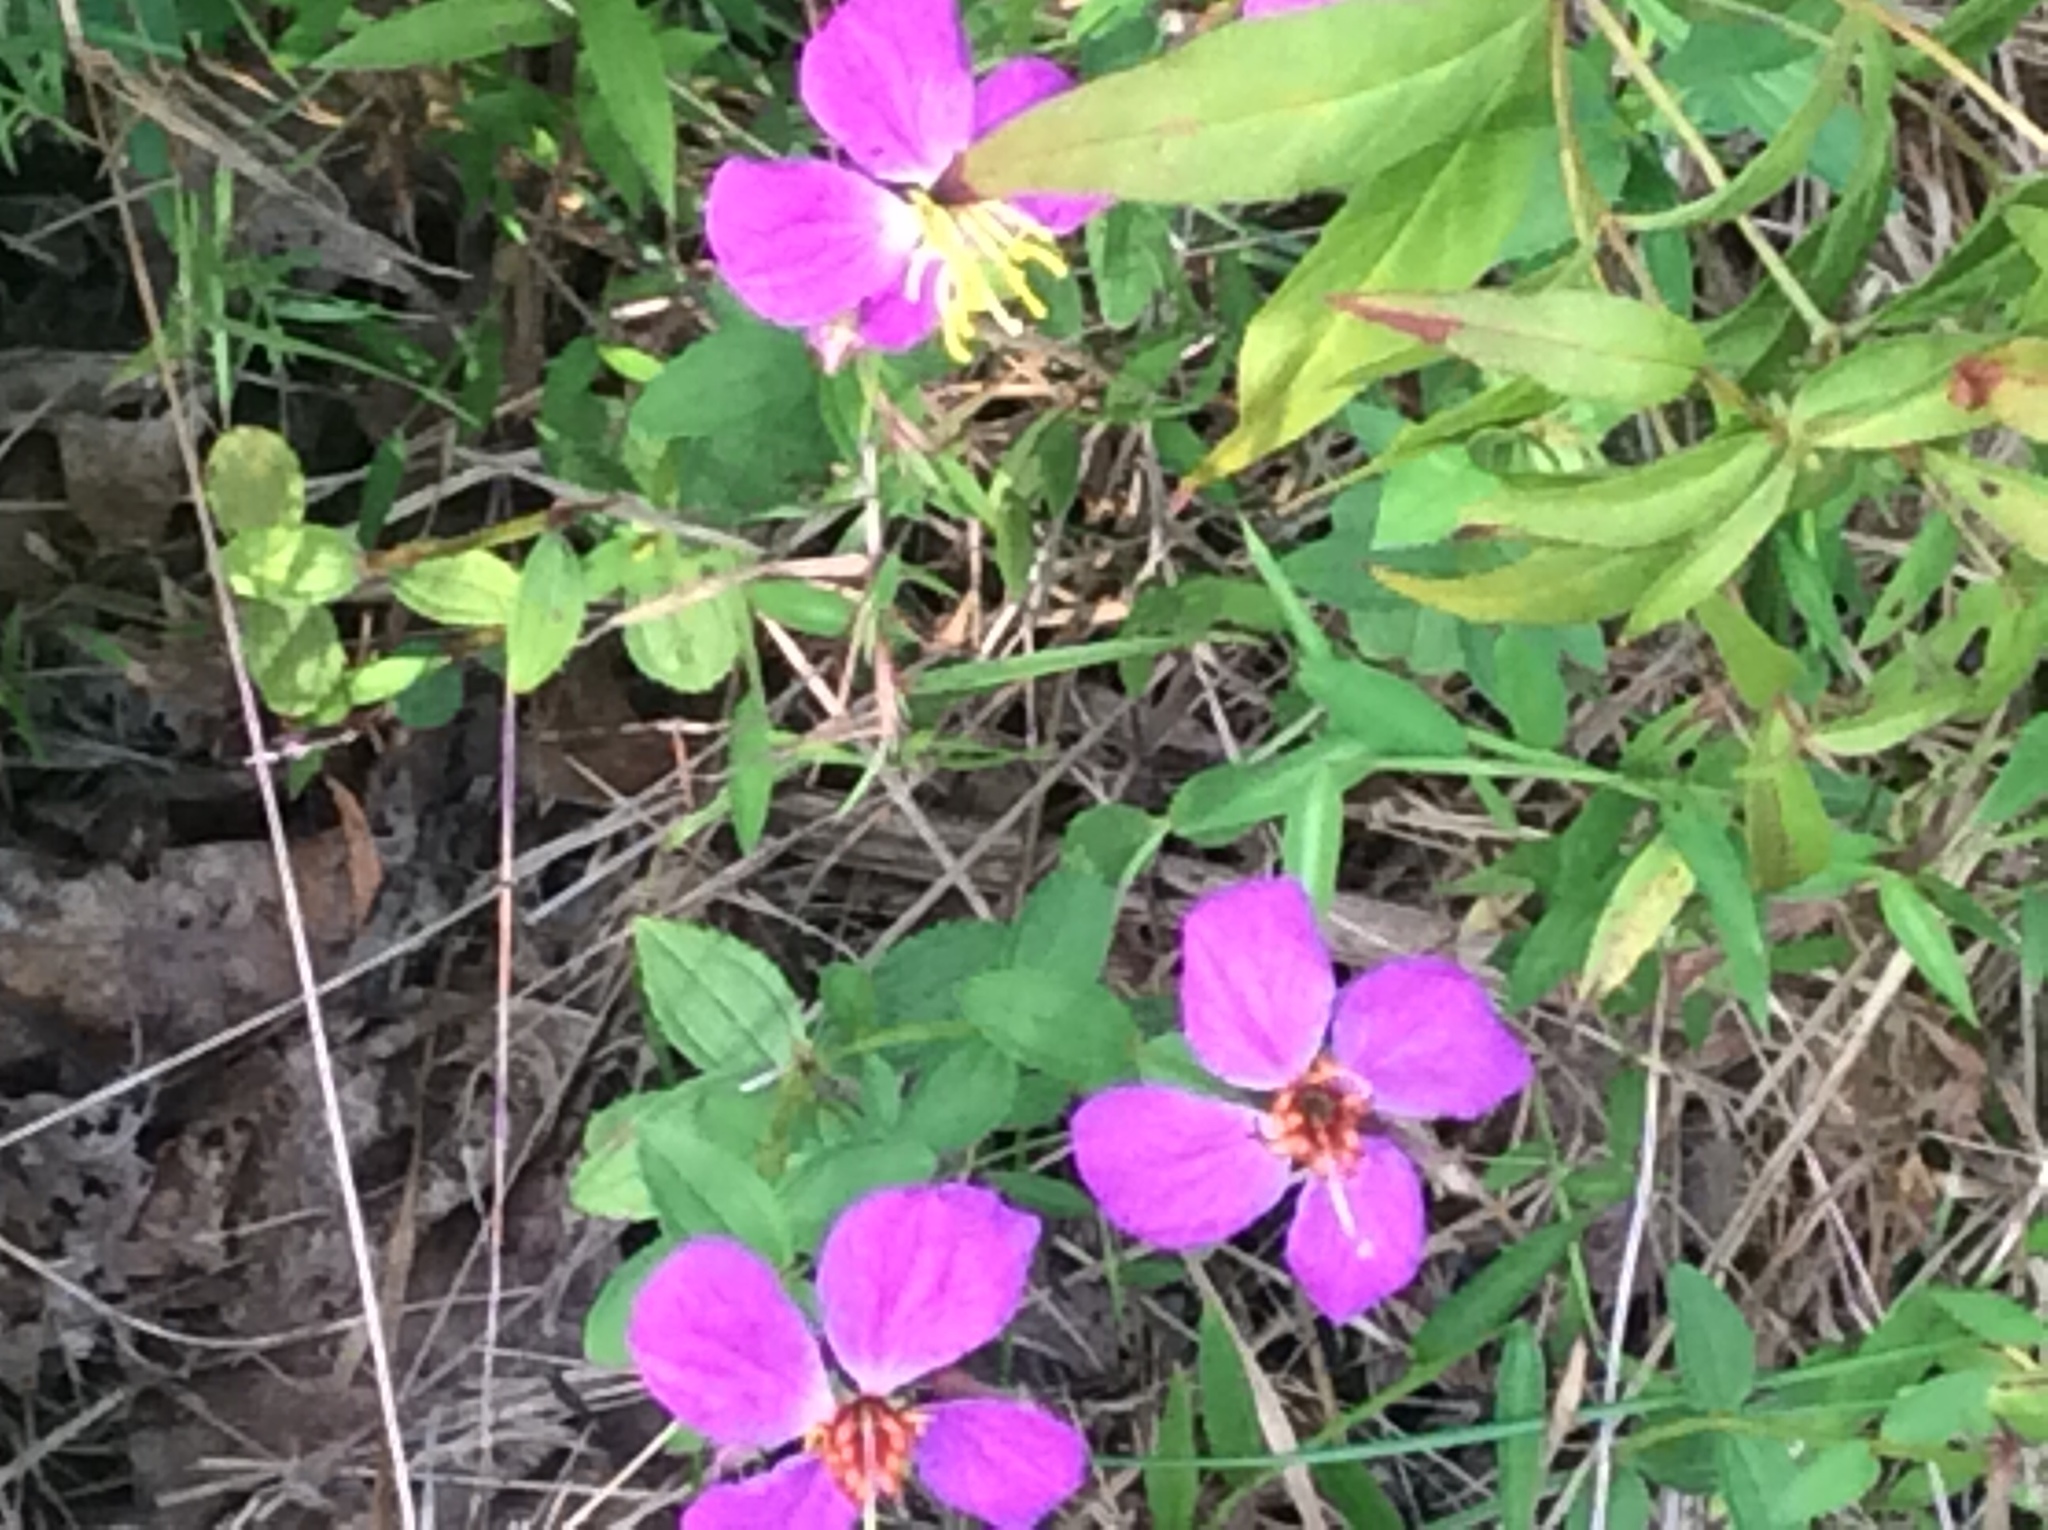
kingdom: Plantae
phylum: Tracheophyta
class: Magnoliopsida
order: Myrtales
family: Melastomataceae
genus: Rhexia
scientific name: Rhexia virginica
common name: Common meadow beauty
